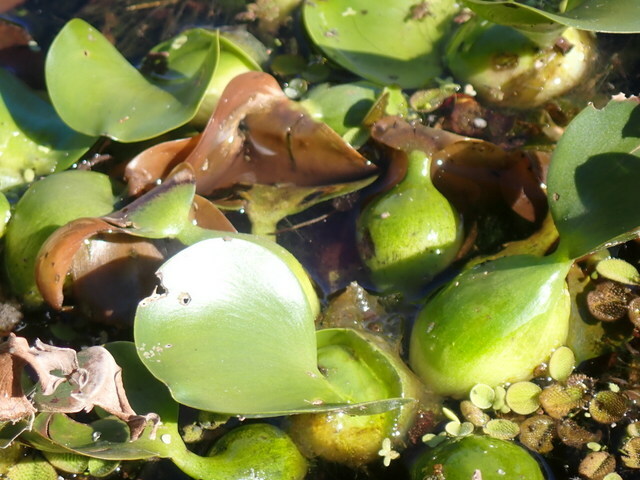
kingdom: Plantae
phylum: Tracheophyta
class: Liliopsida
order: Commelinales
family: Pontederiaceae
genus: Pontederia
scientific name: Pontederia crassipes
